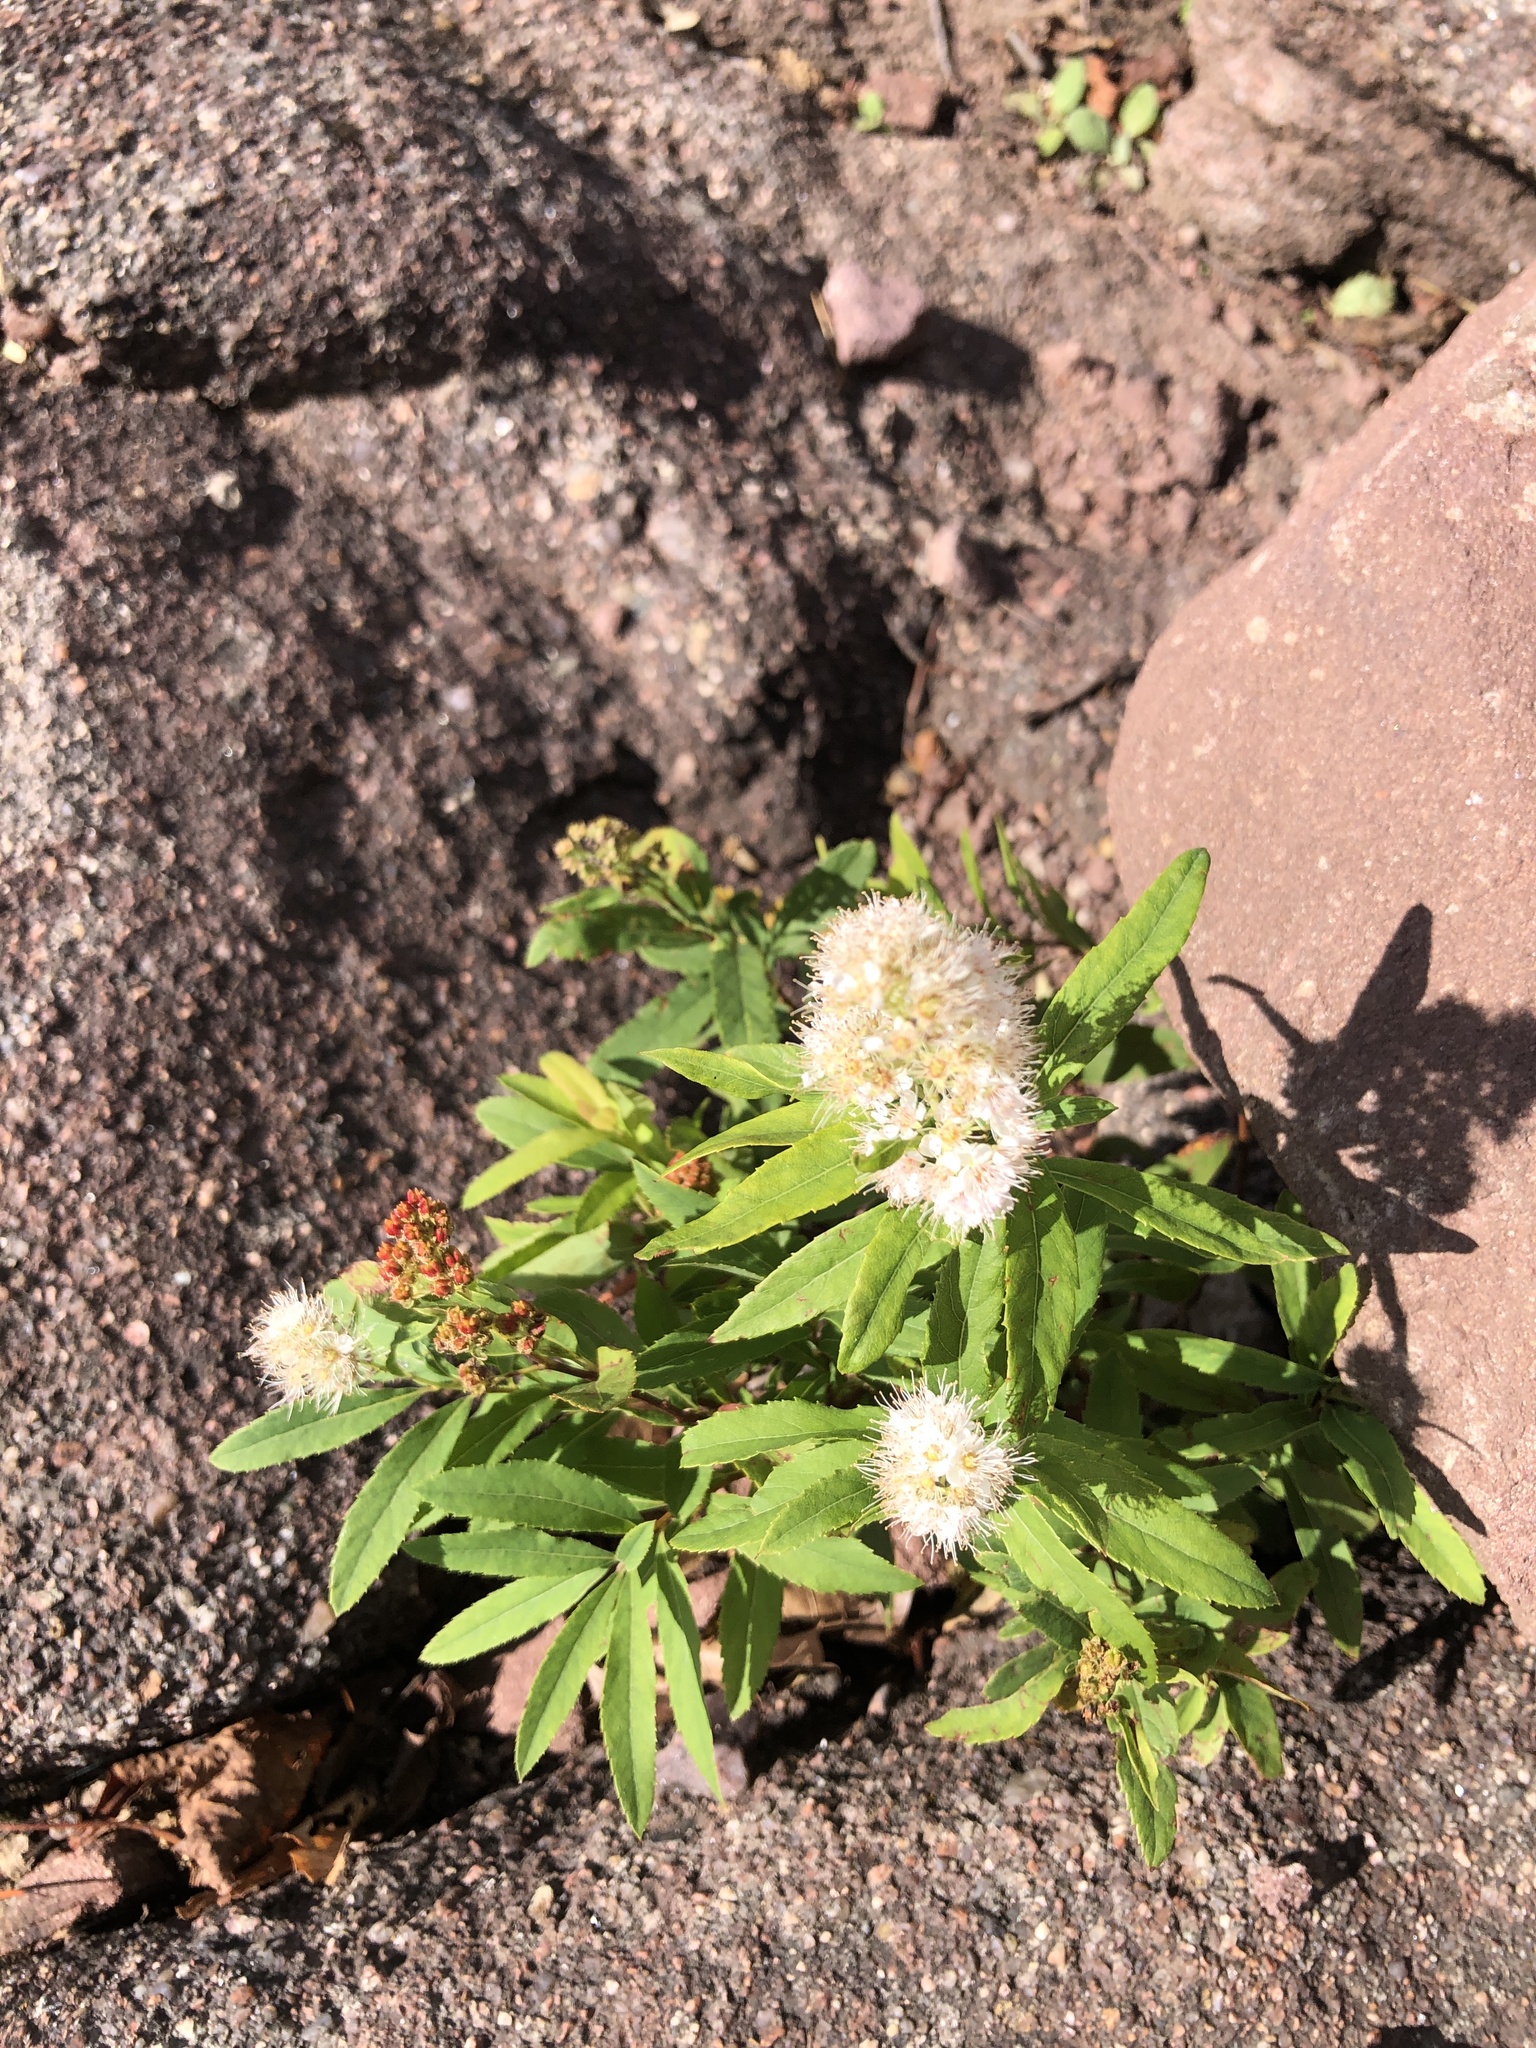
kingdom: Plantae
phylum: Tracheophyta
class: Magnoliopsida
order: Rosales
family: Rosaceae
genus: Spiraea
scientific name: Spiraea alba
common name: Pale bridewort
